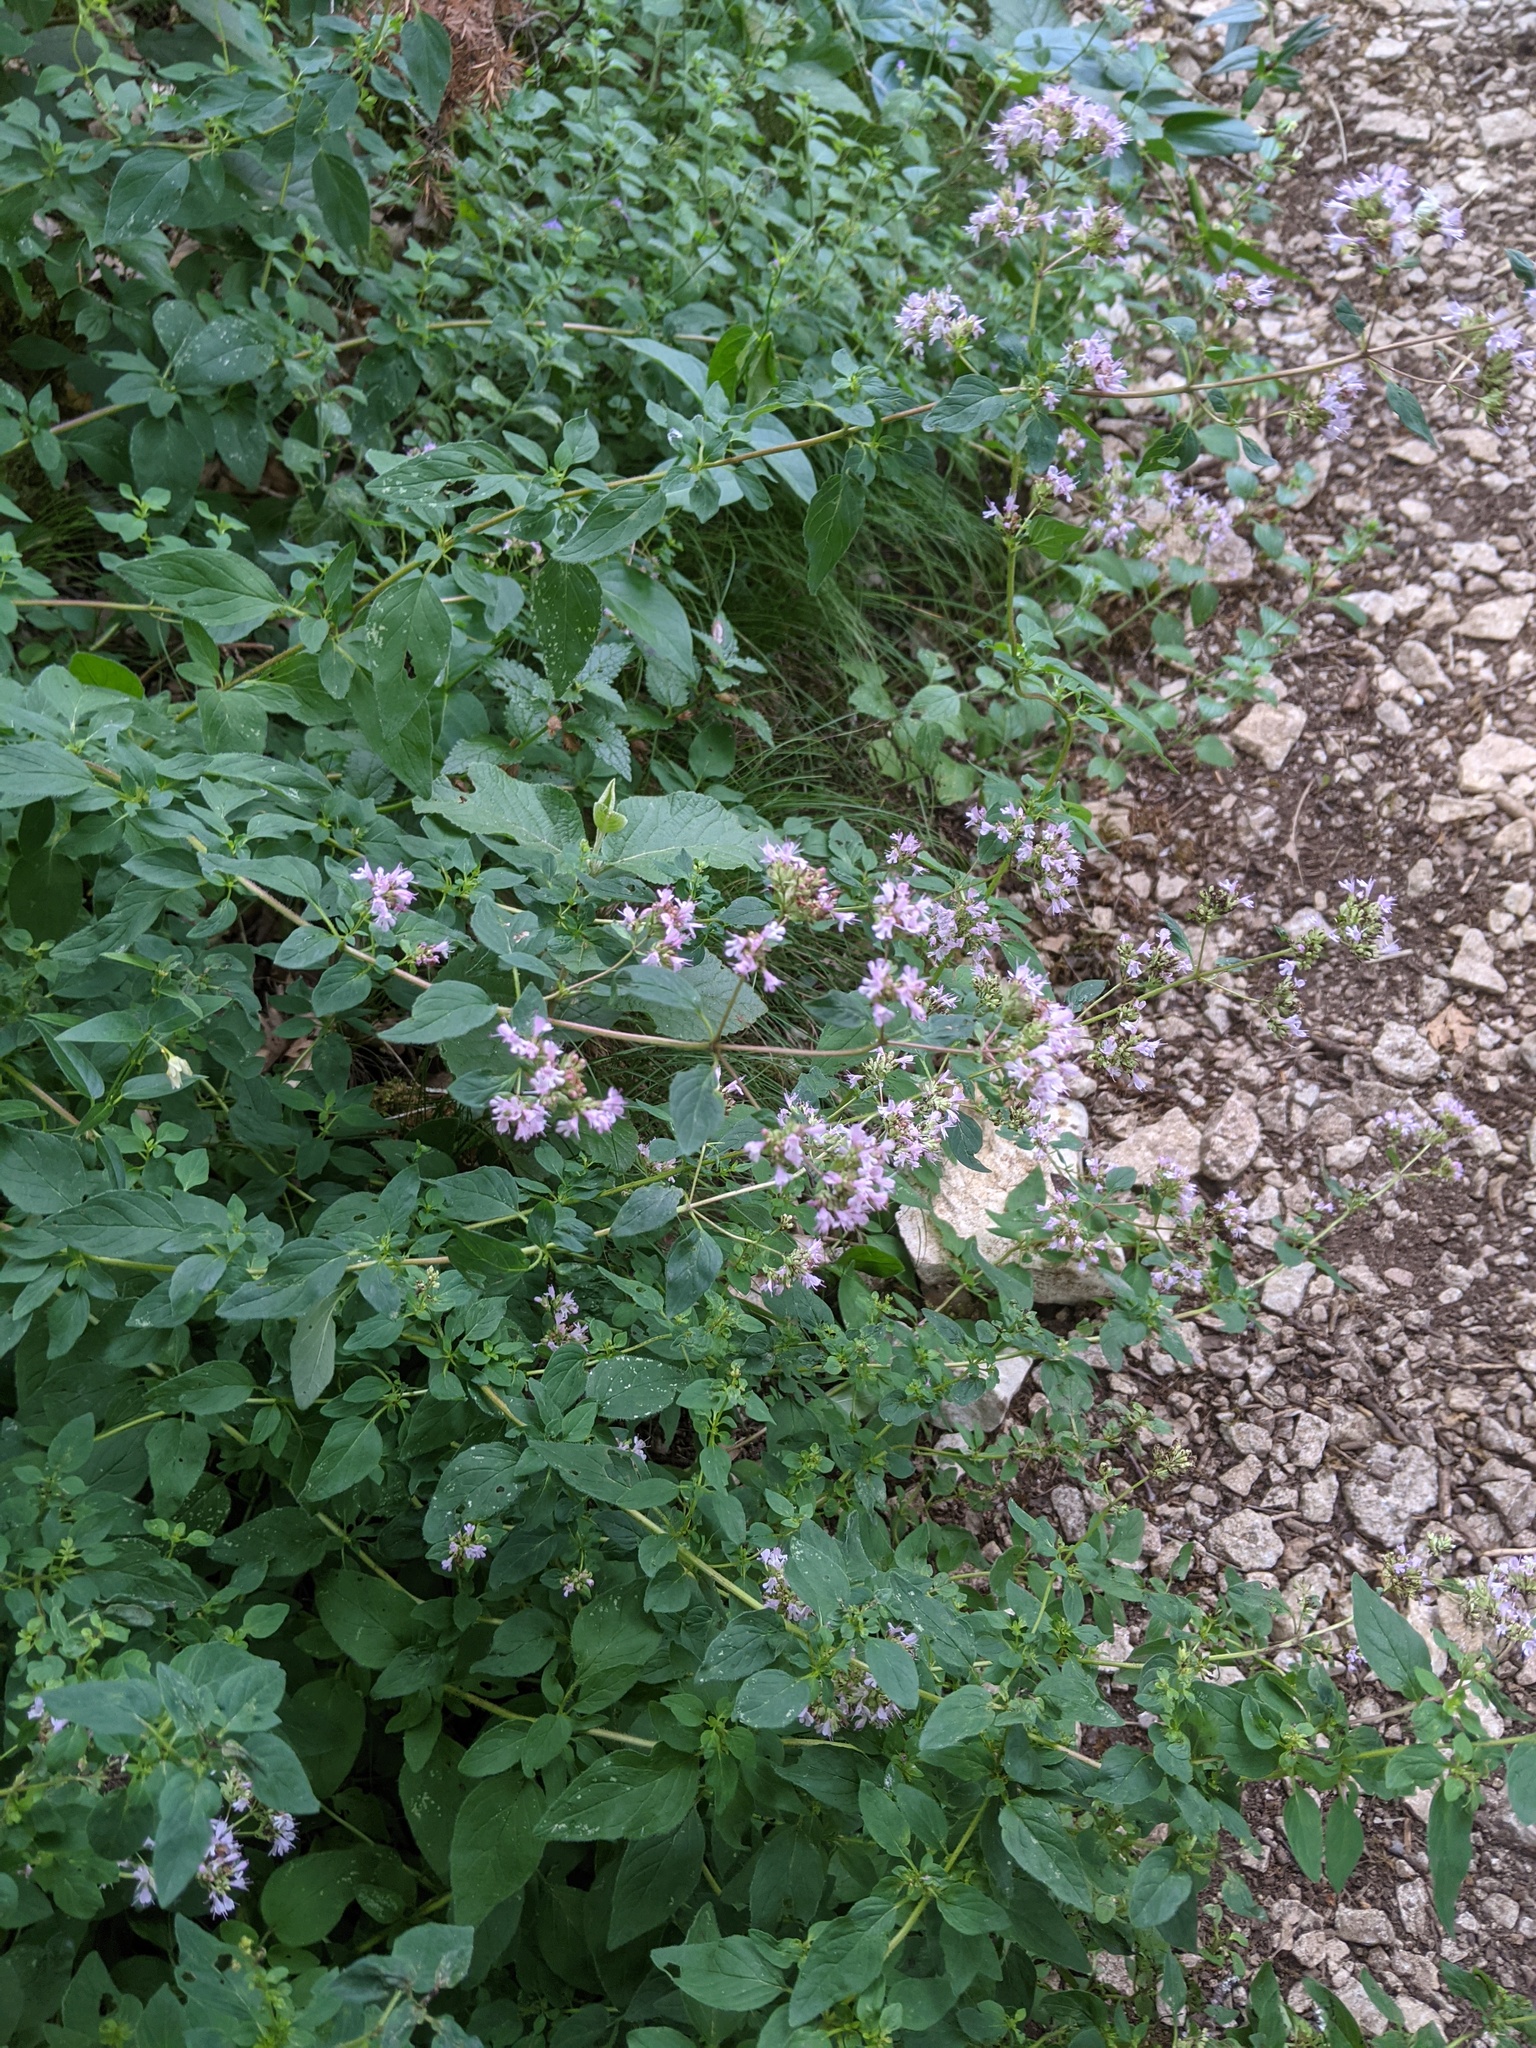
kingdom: Plantae
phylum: Tracheophyta
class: Magnoliopsida
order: Lamiales
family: Lamiaceae
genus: Origanum
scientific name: Origanum vulgare
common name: Wild marjoram
